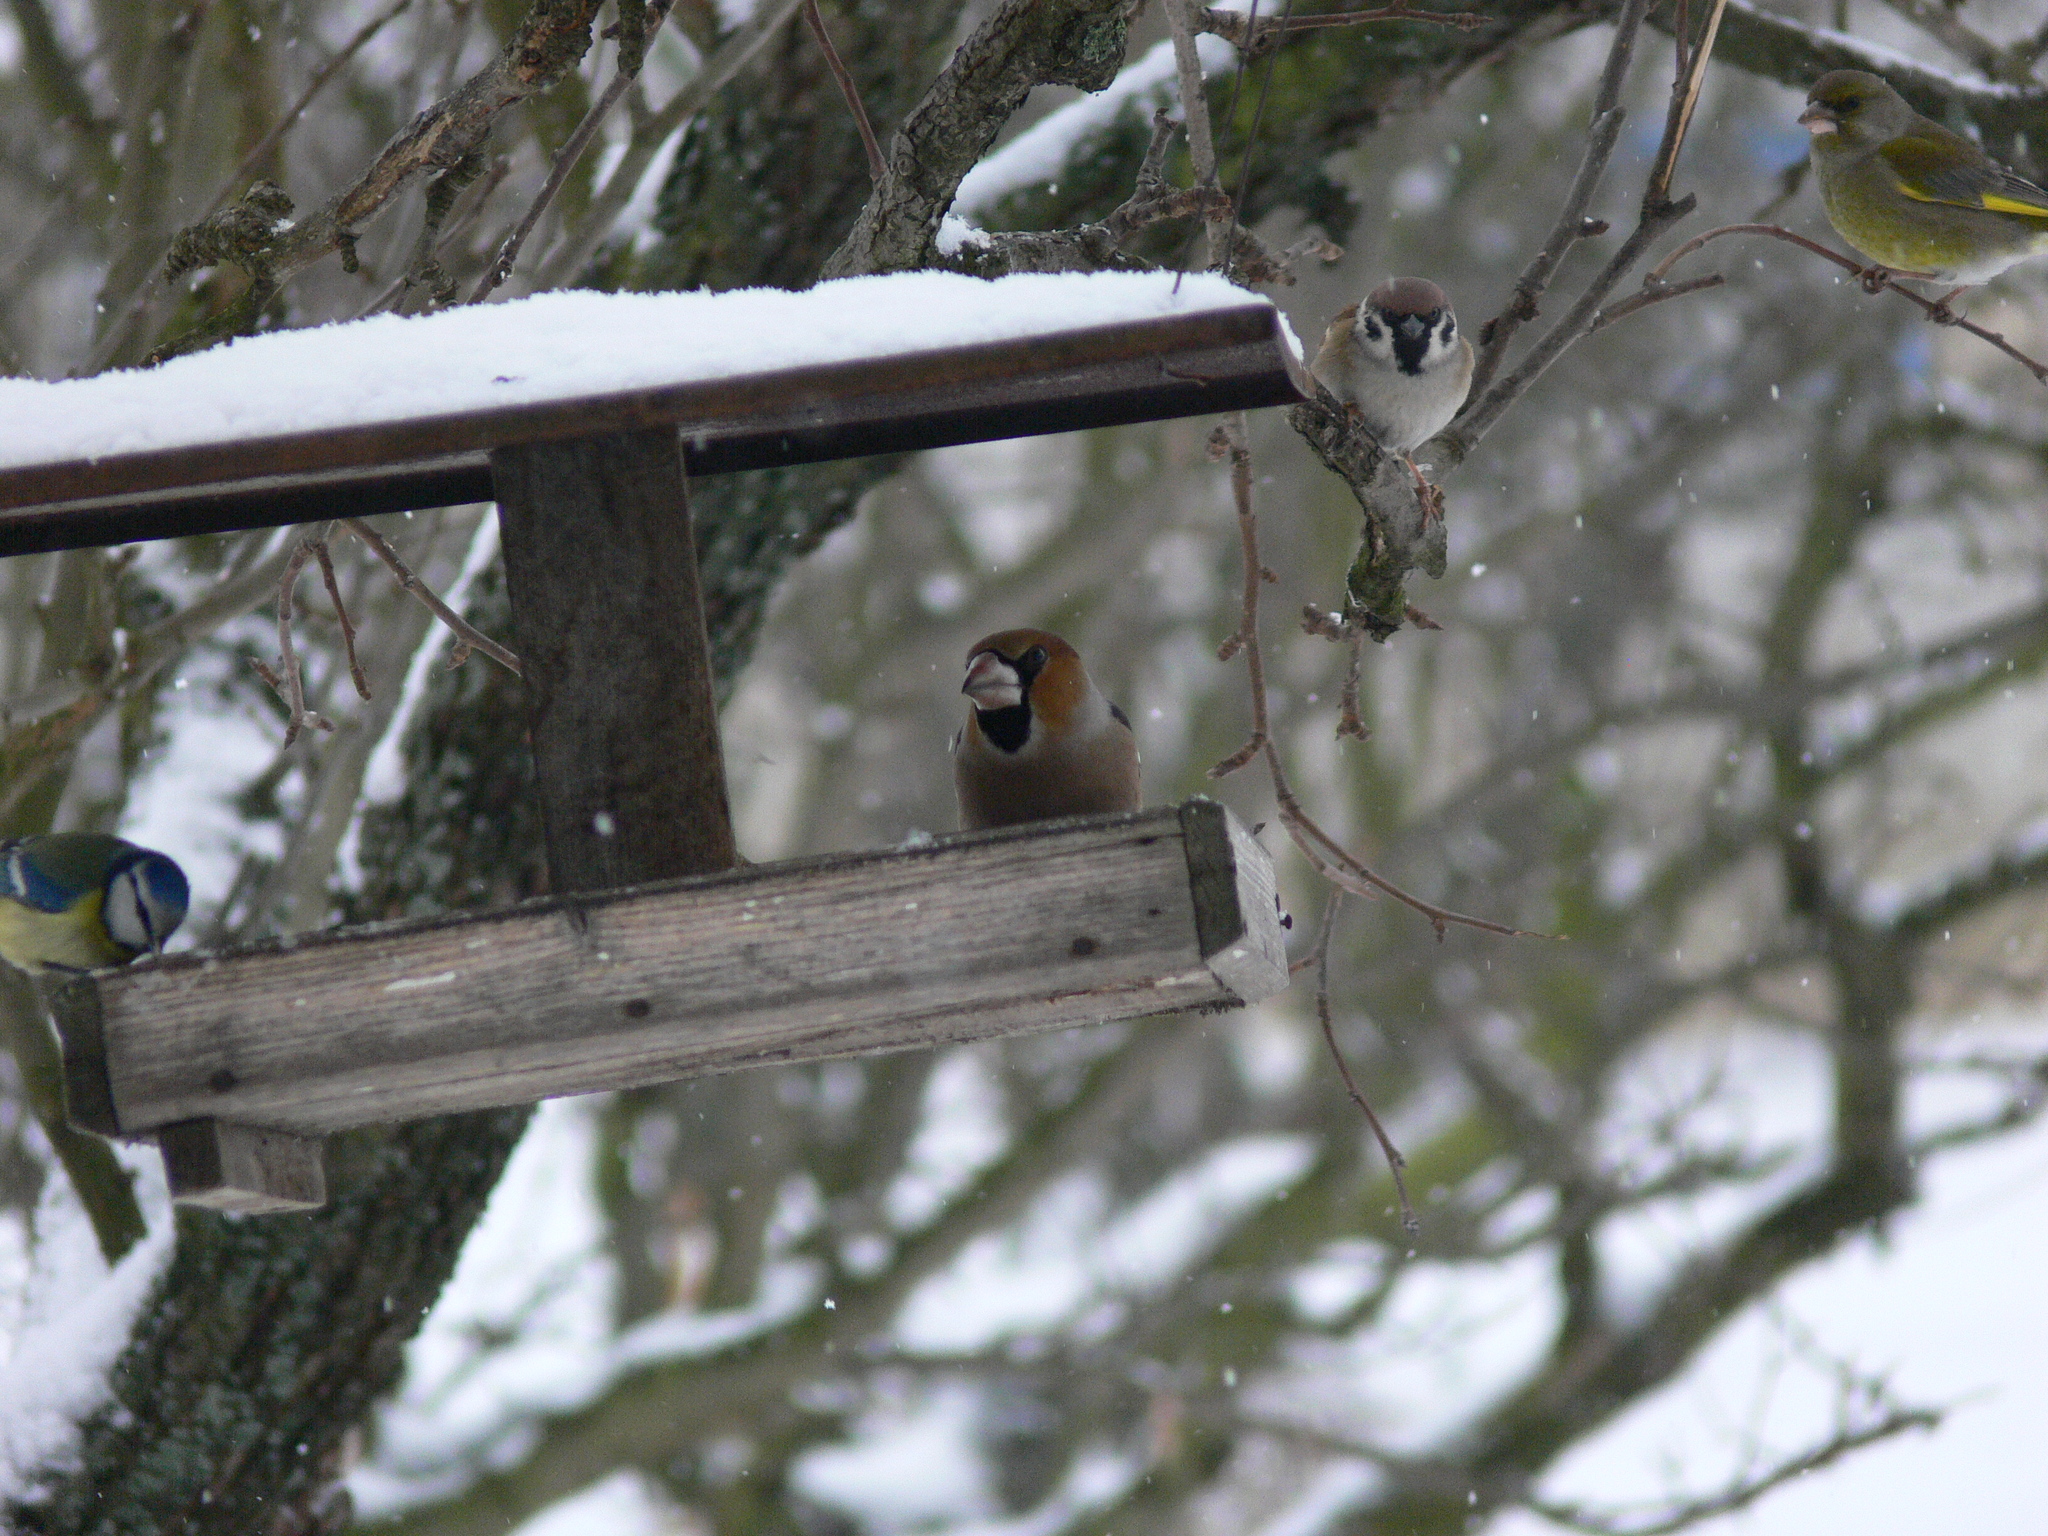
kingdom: Animalia
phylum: Chordata
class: Aves
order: Passeriformes
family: Fringillidae
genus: Coccothraustes
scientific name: Coccothraustes coccothraustes
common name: Hawfinch
